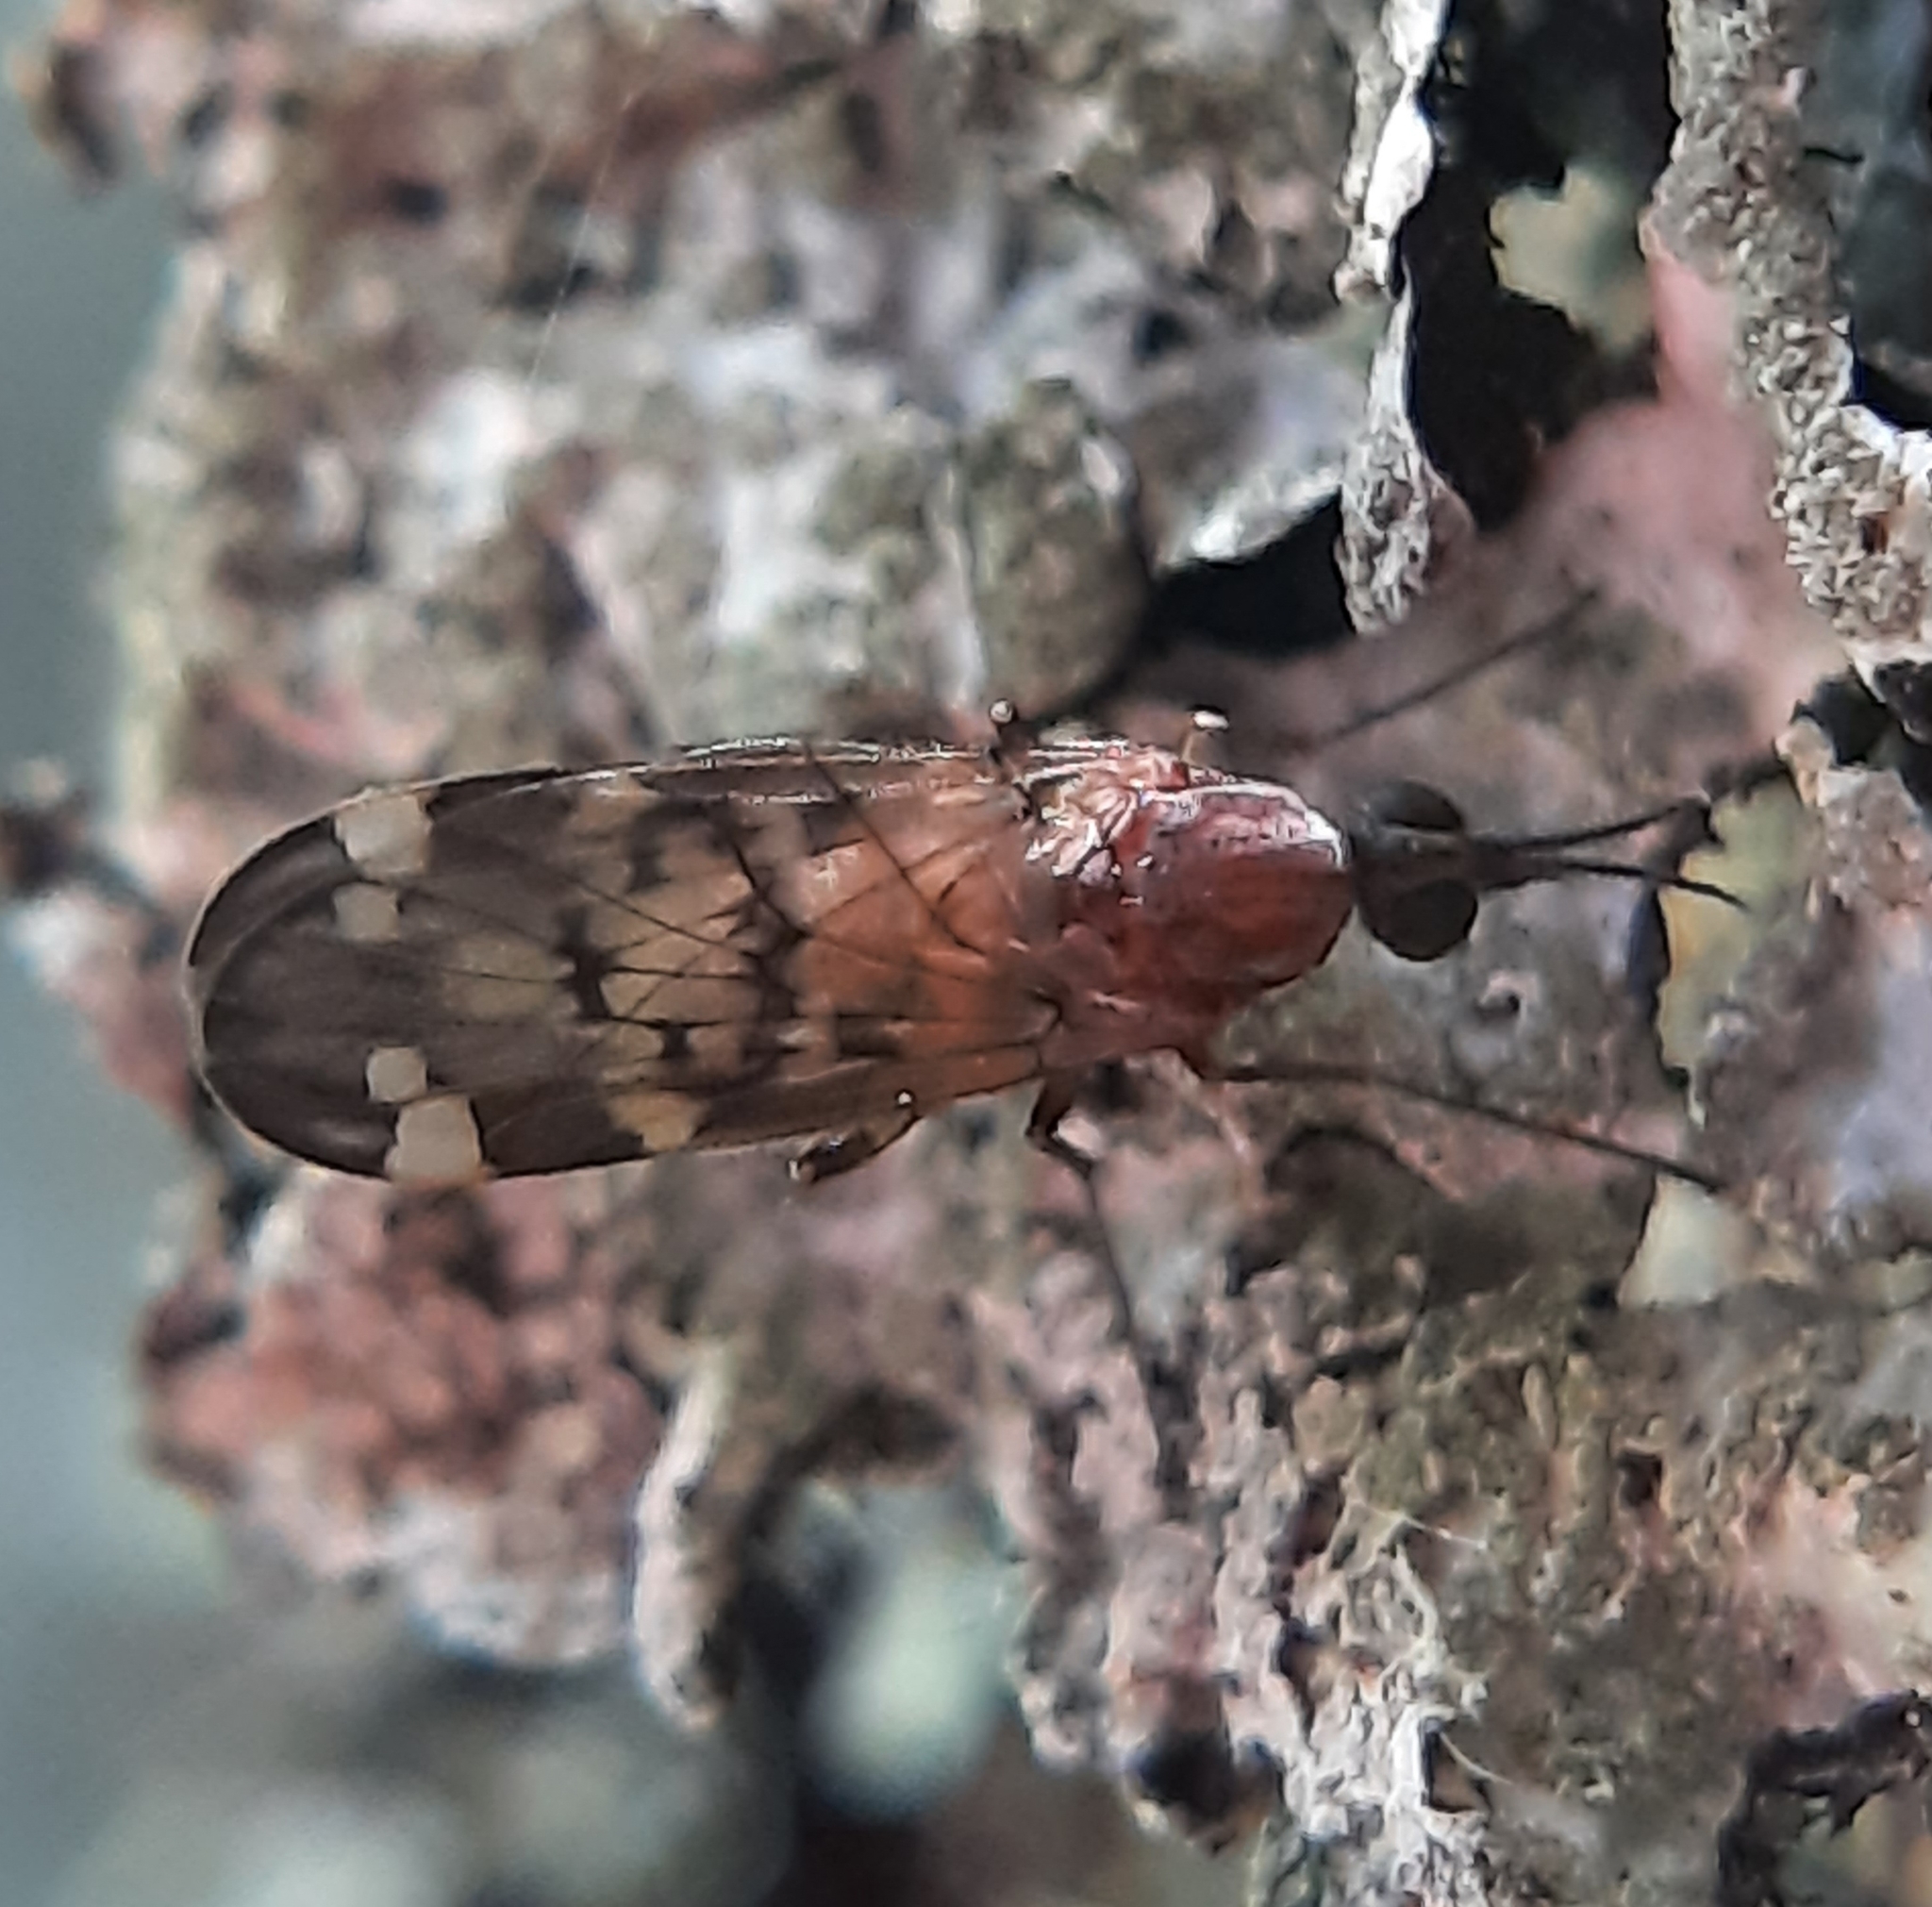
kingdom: Animalia
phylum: Arthropoda
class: Insecta
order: Diptera
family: Anisopodidae
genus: Sylvicola
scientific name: Sylvicola alternata
